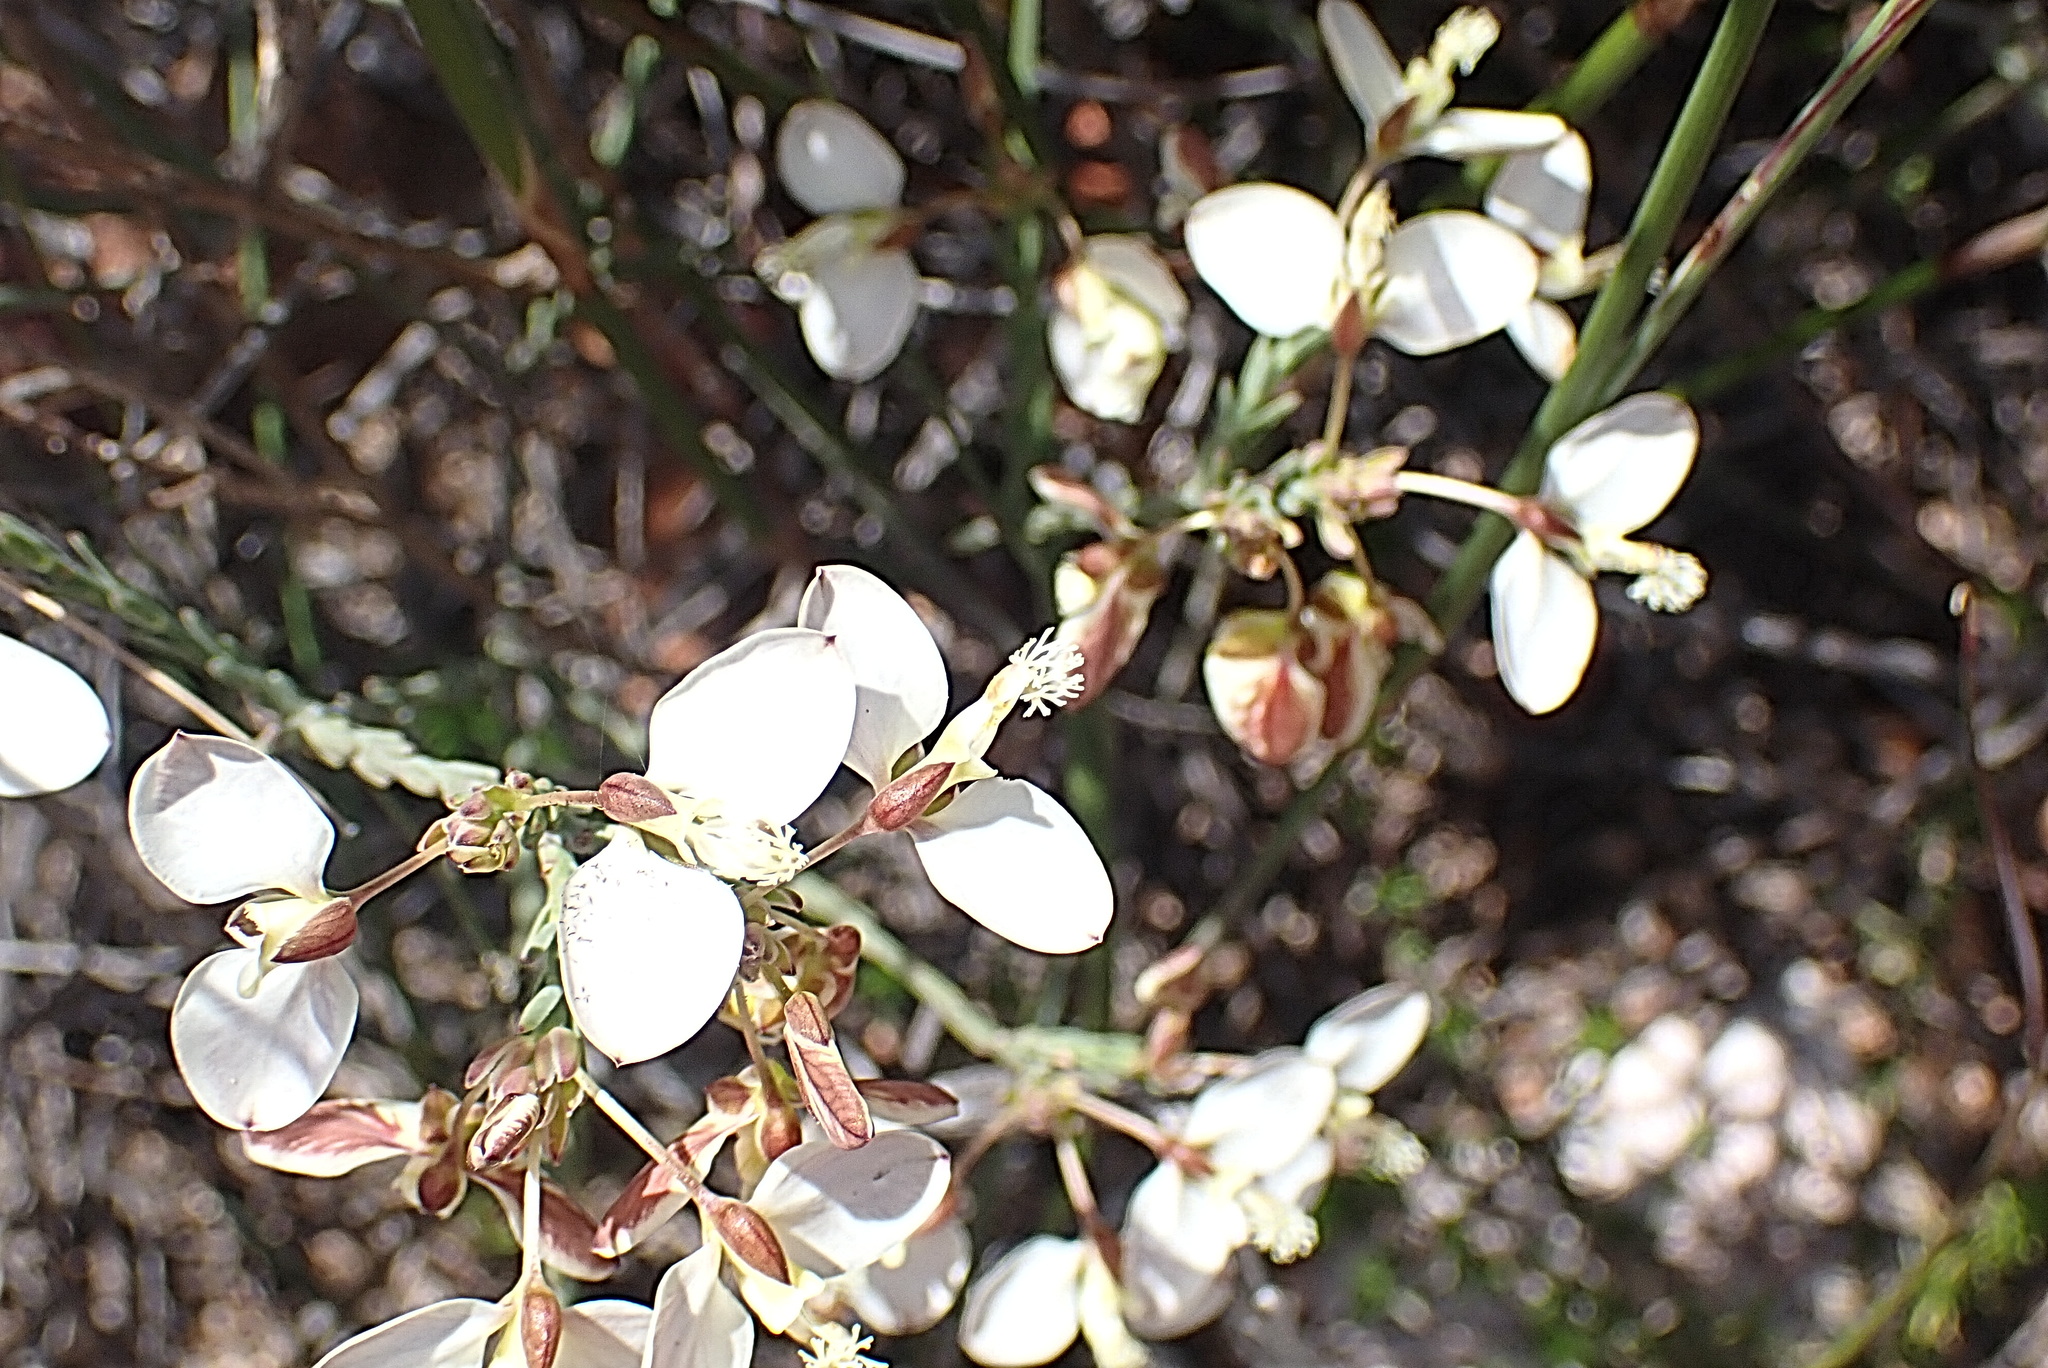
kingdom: Plantae
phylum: Tracheophyta
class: Magnoliopsida
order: Fabales
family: Polygalaceae
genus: Polygala
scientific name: Polygala wittebergensis
